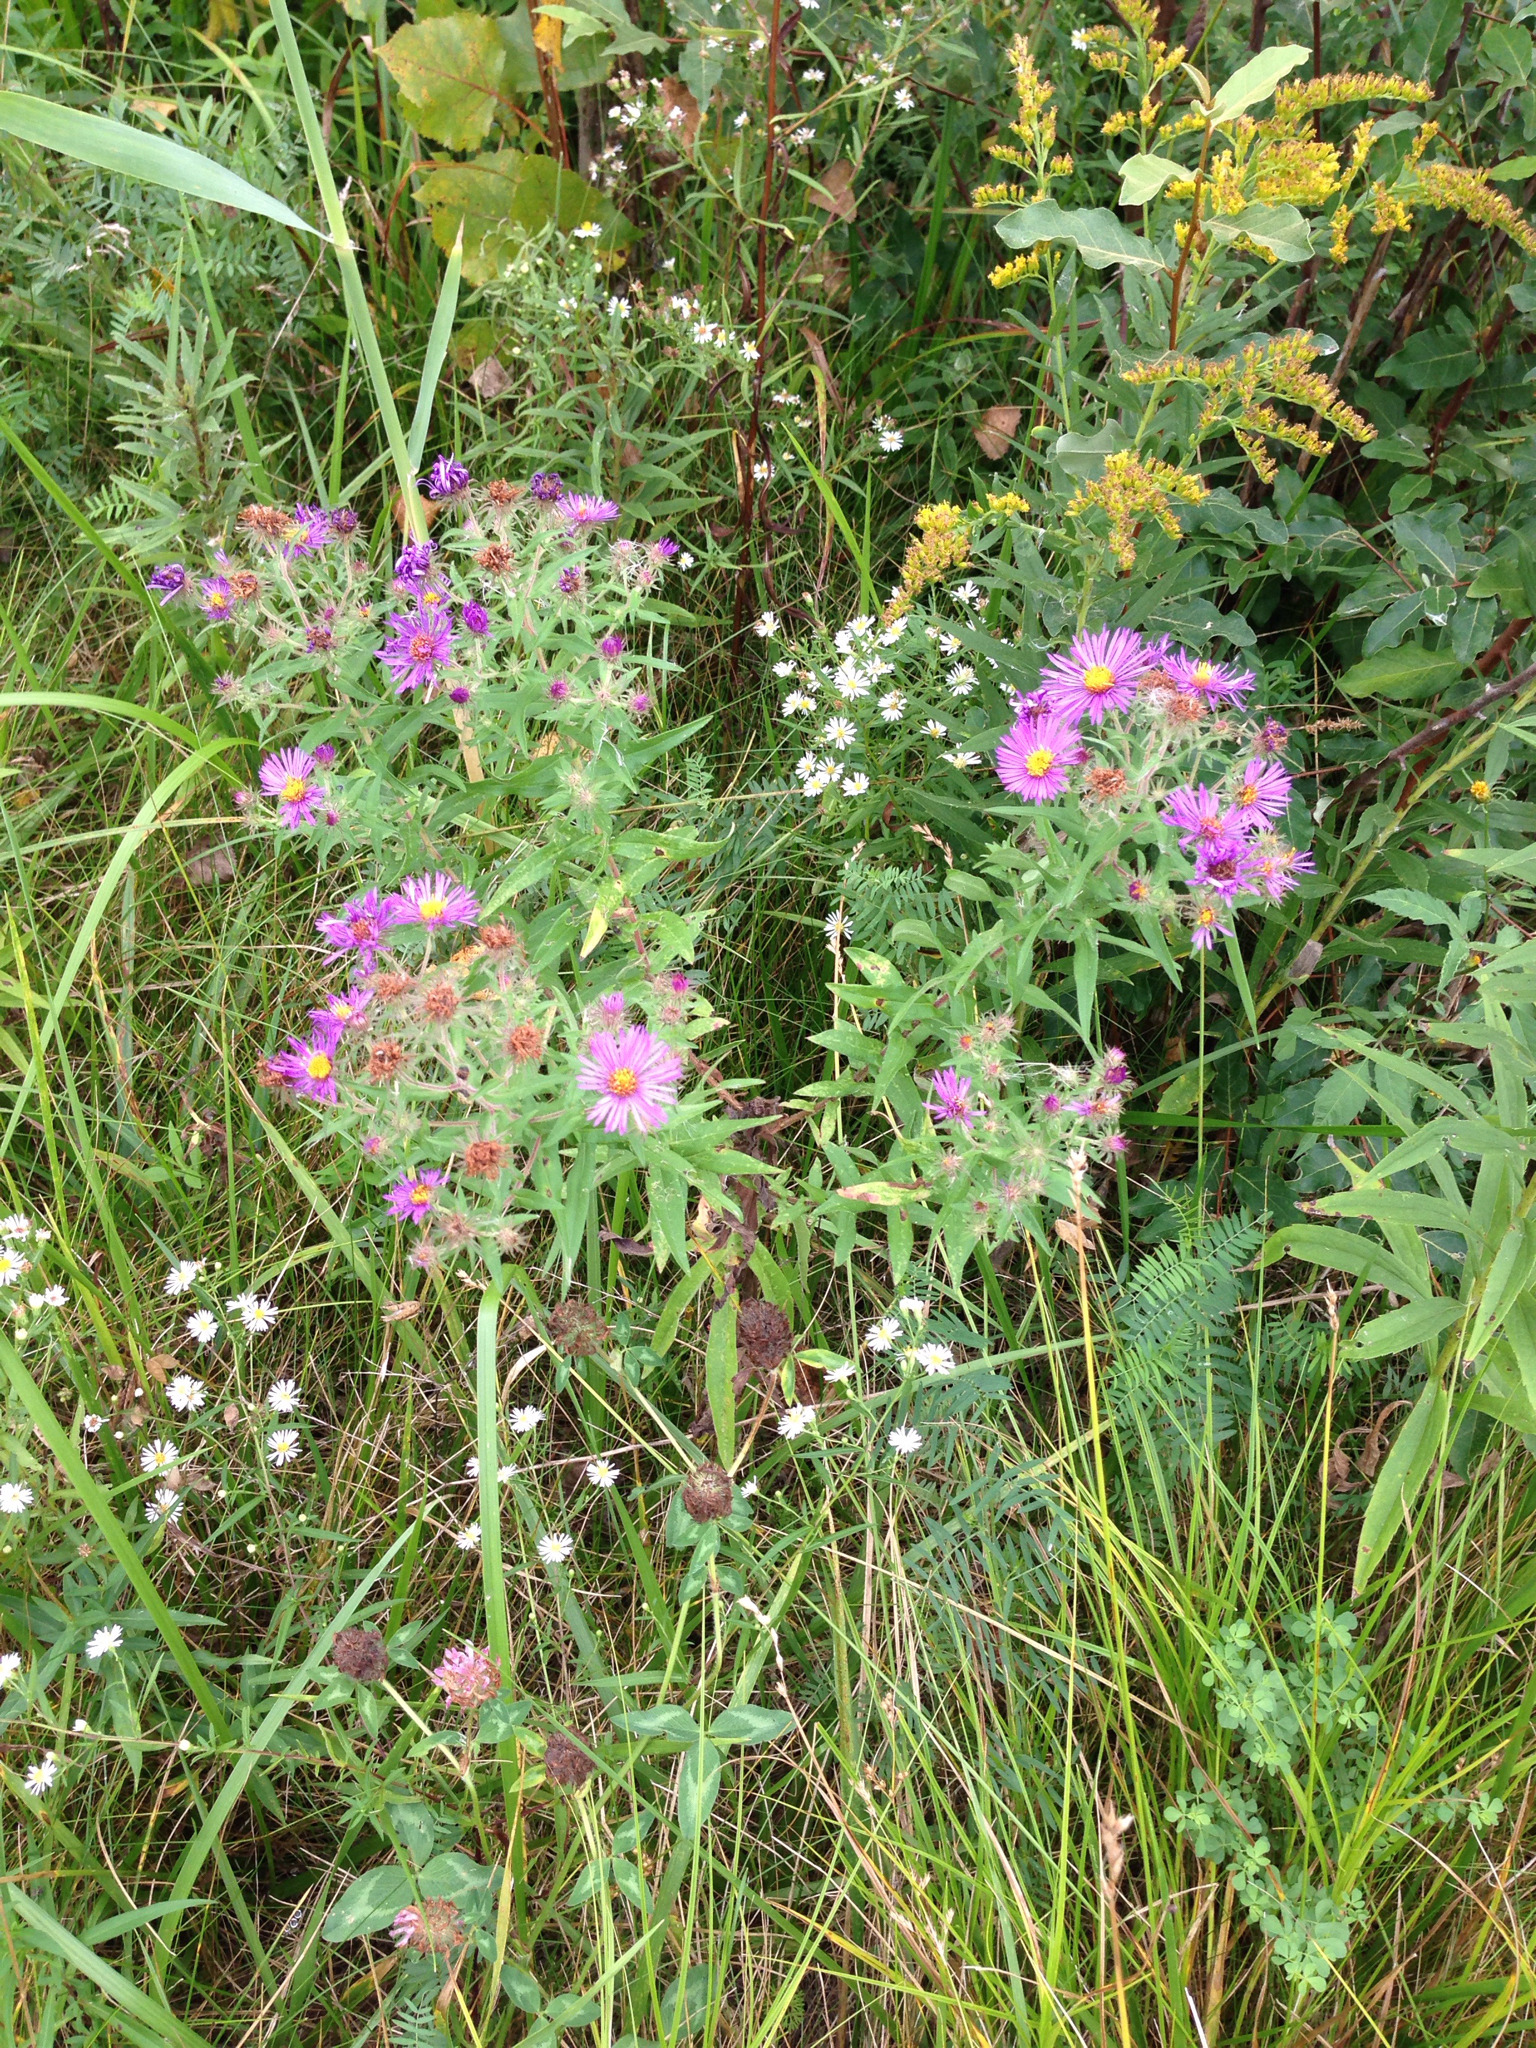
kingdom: Plantae
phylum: Tracheophyta
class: Magnoliopsida
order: Asterales
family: Asteraceae
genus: Symphyotrichum
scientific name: Symphyotrichum novae-angliae
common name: Michaelmas daisy
